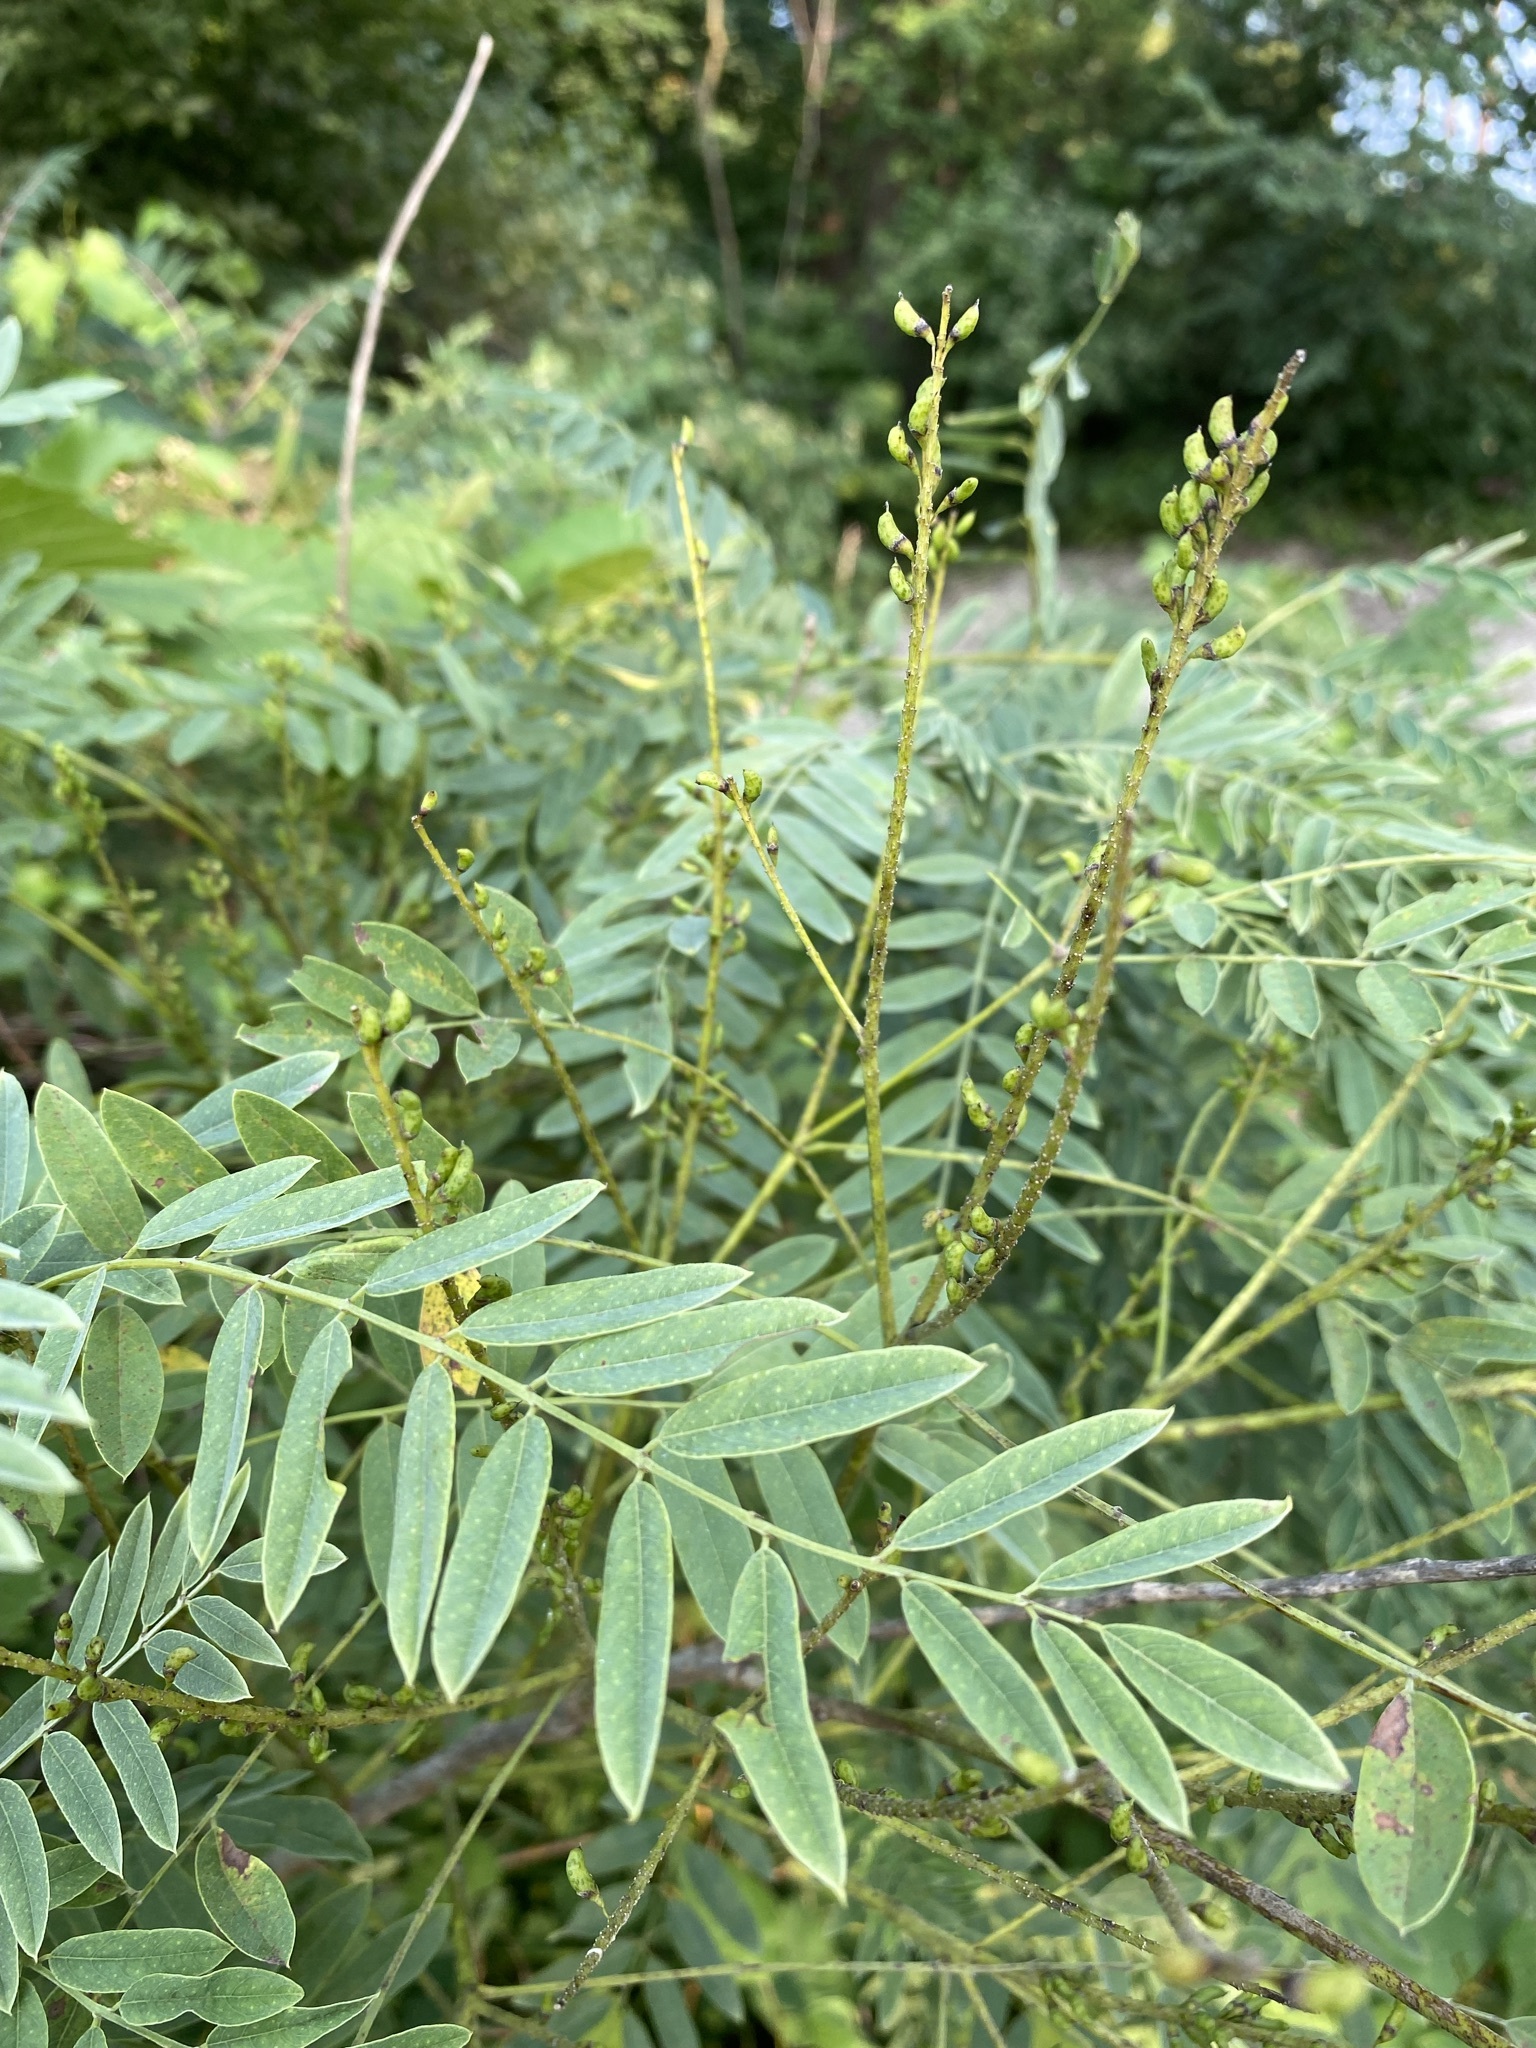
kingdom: Plantae
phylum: Tracheophyta
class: Magnoliopsida
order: Fabales
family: Fabaceae
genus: Amorpha
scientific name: Amorpha fruticosa
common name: False indigo
